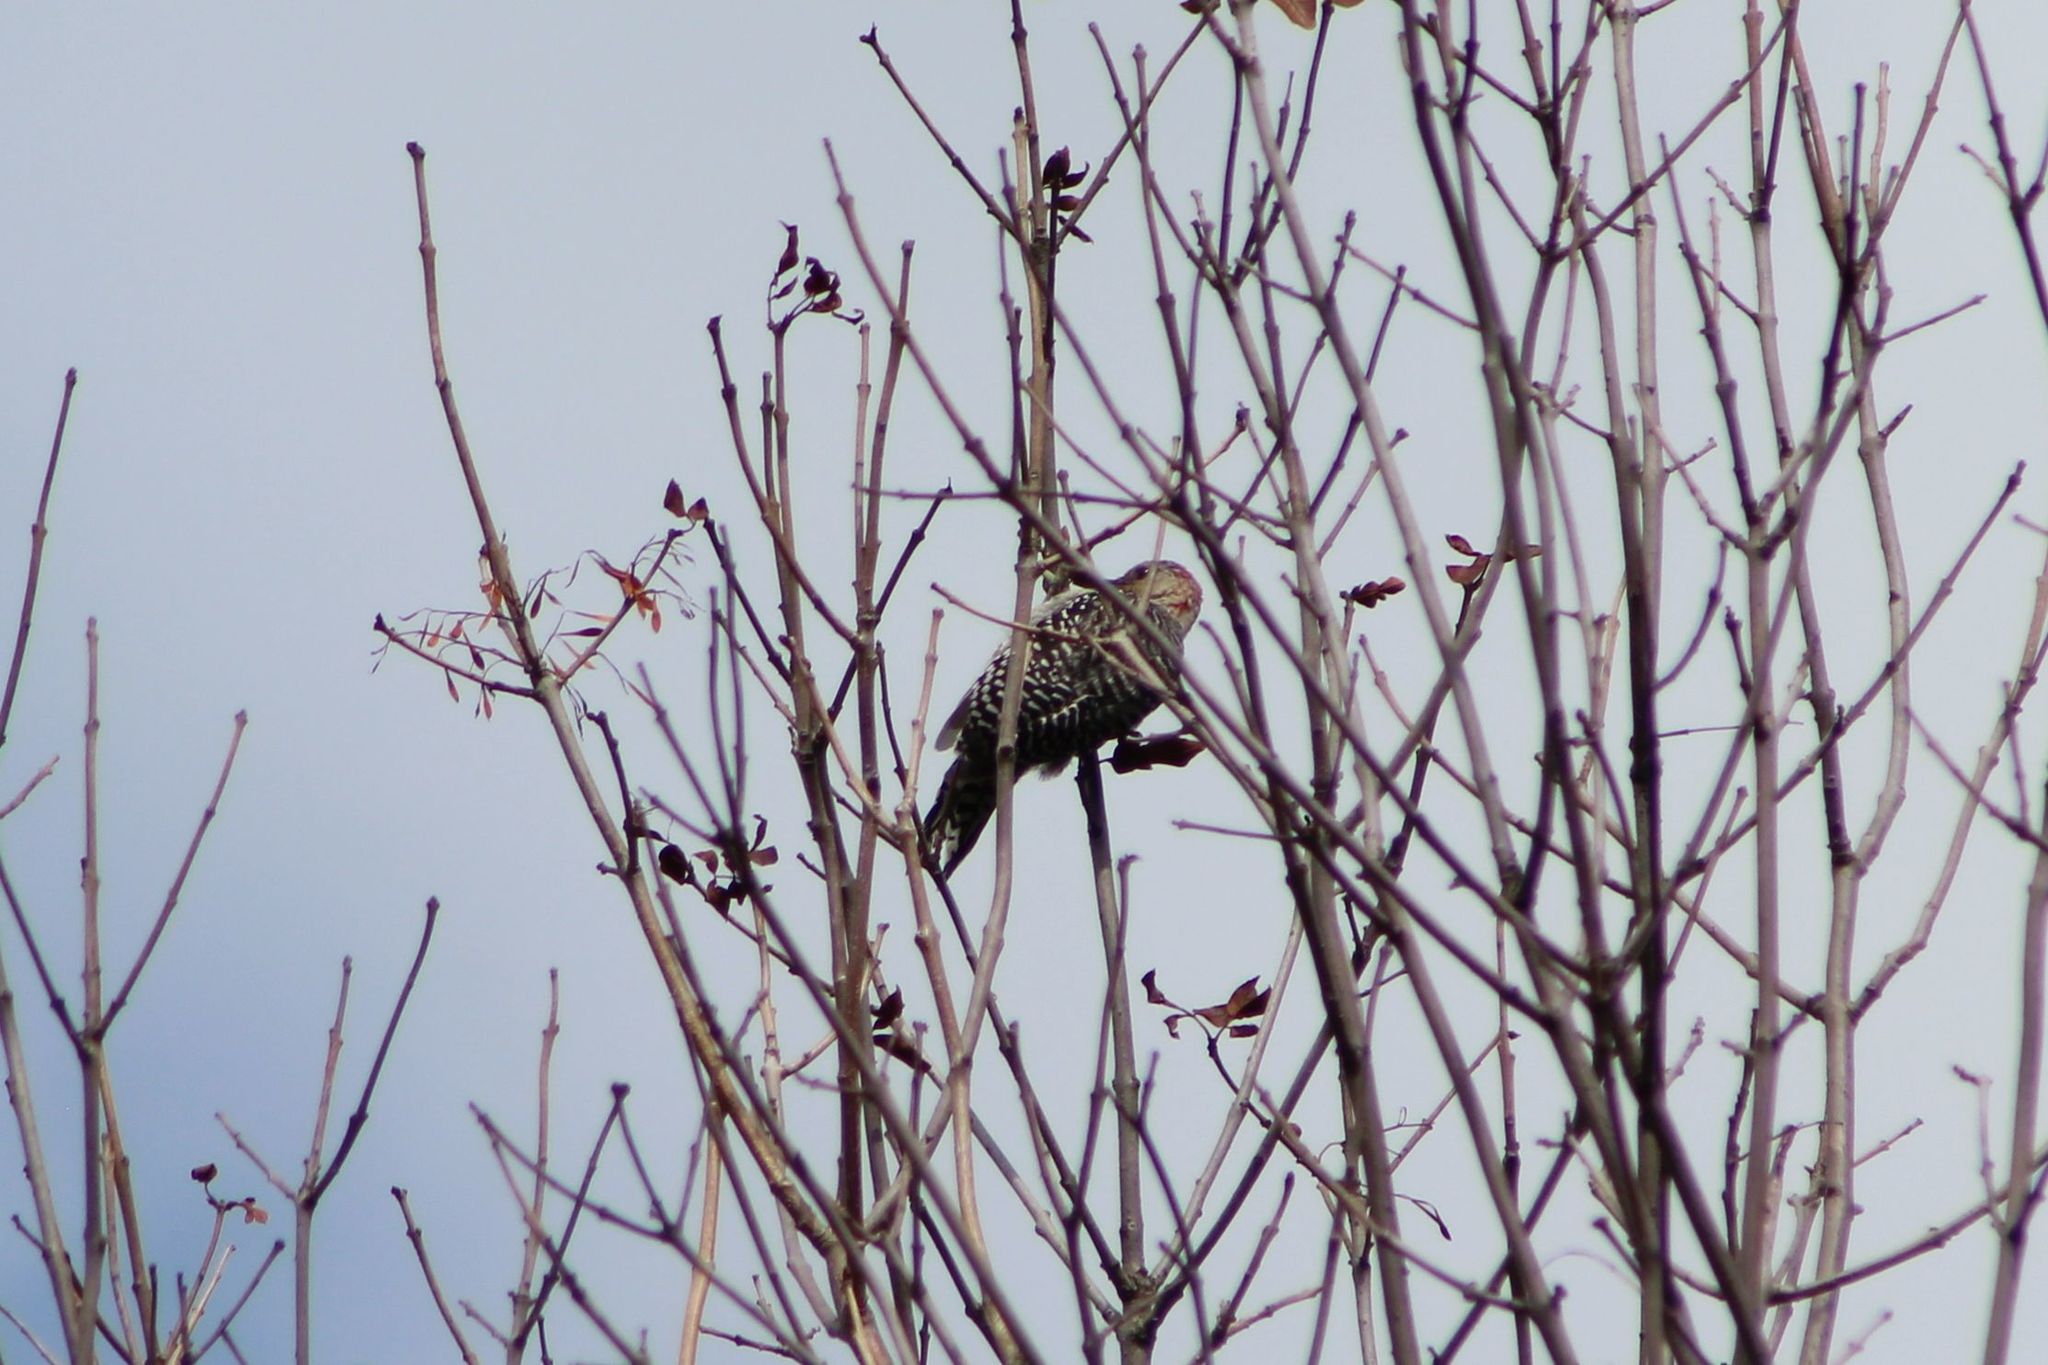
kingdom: Animalia
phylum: Chordata
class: Aves
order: Piciformes
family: Picidae
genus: Melanerpes
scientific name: Melanerpes carolinus
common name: Red-bellied woodpecker
